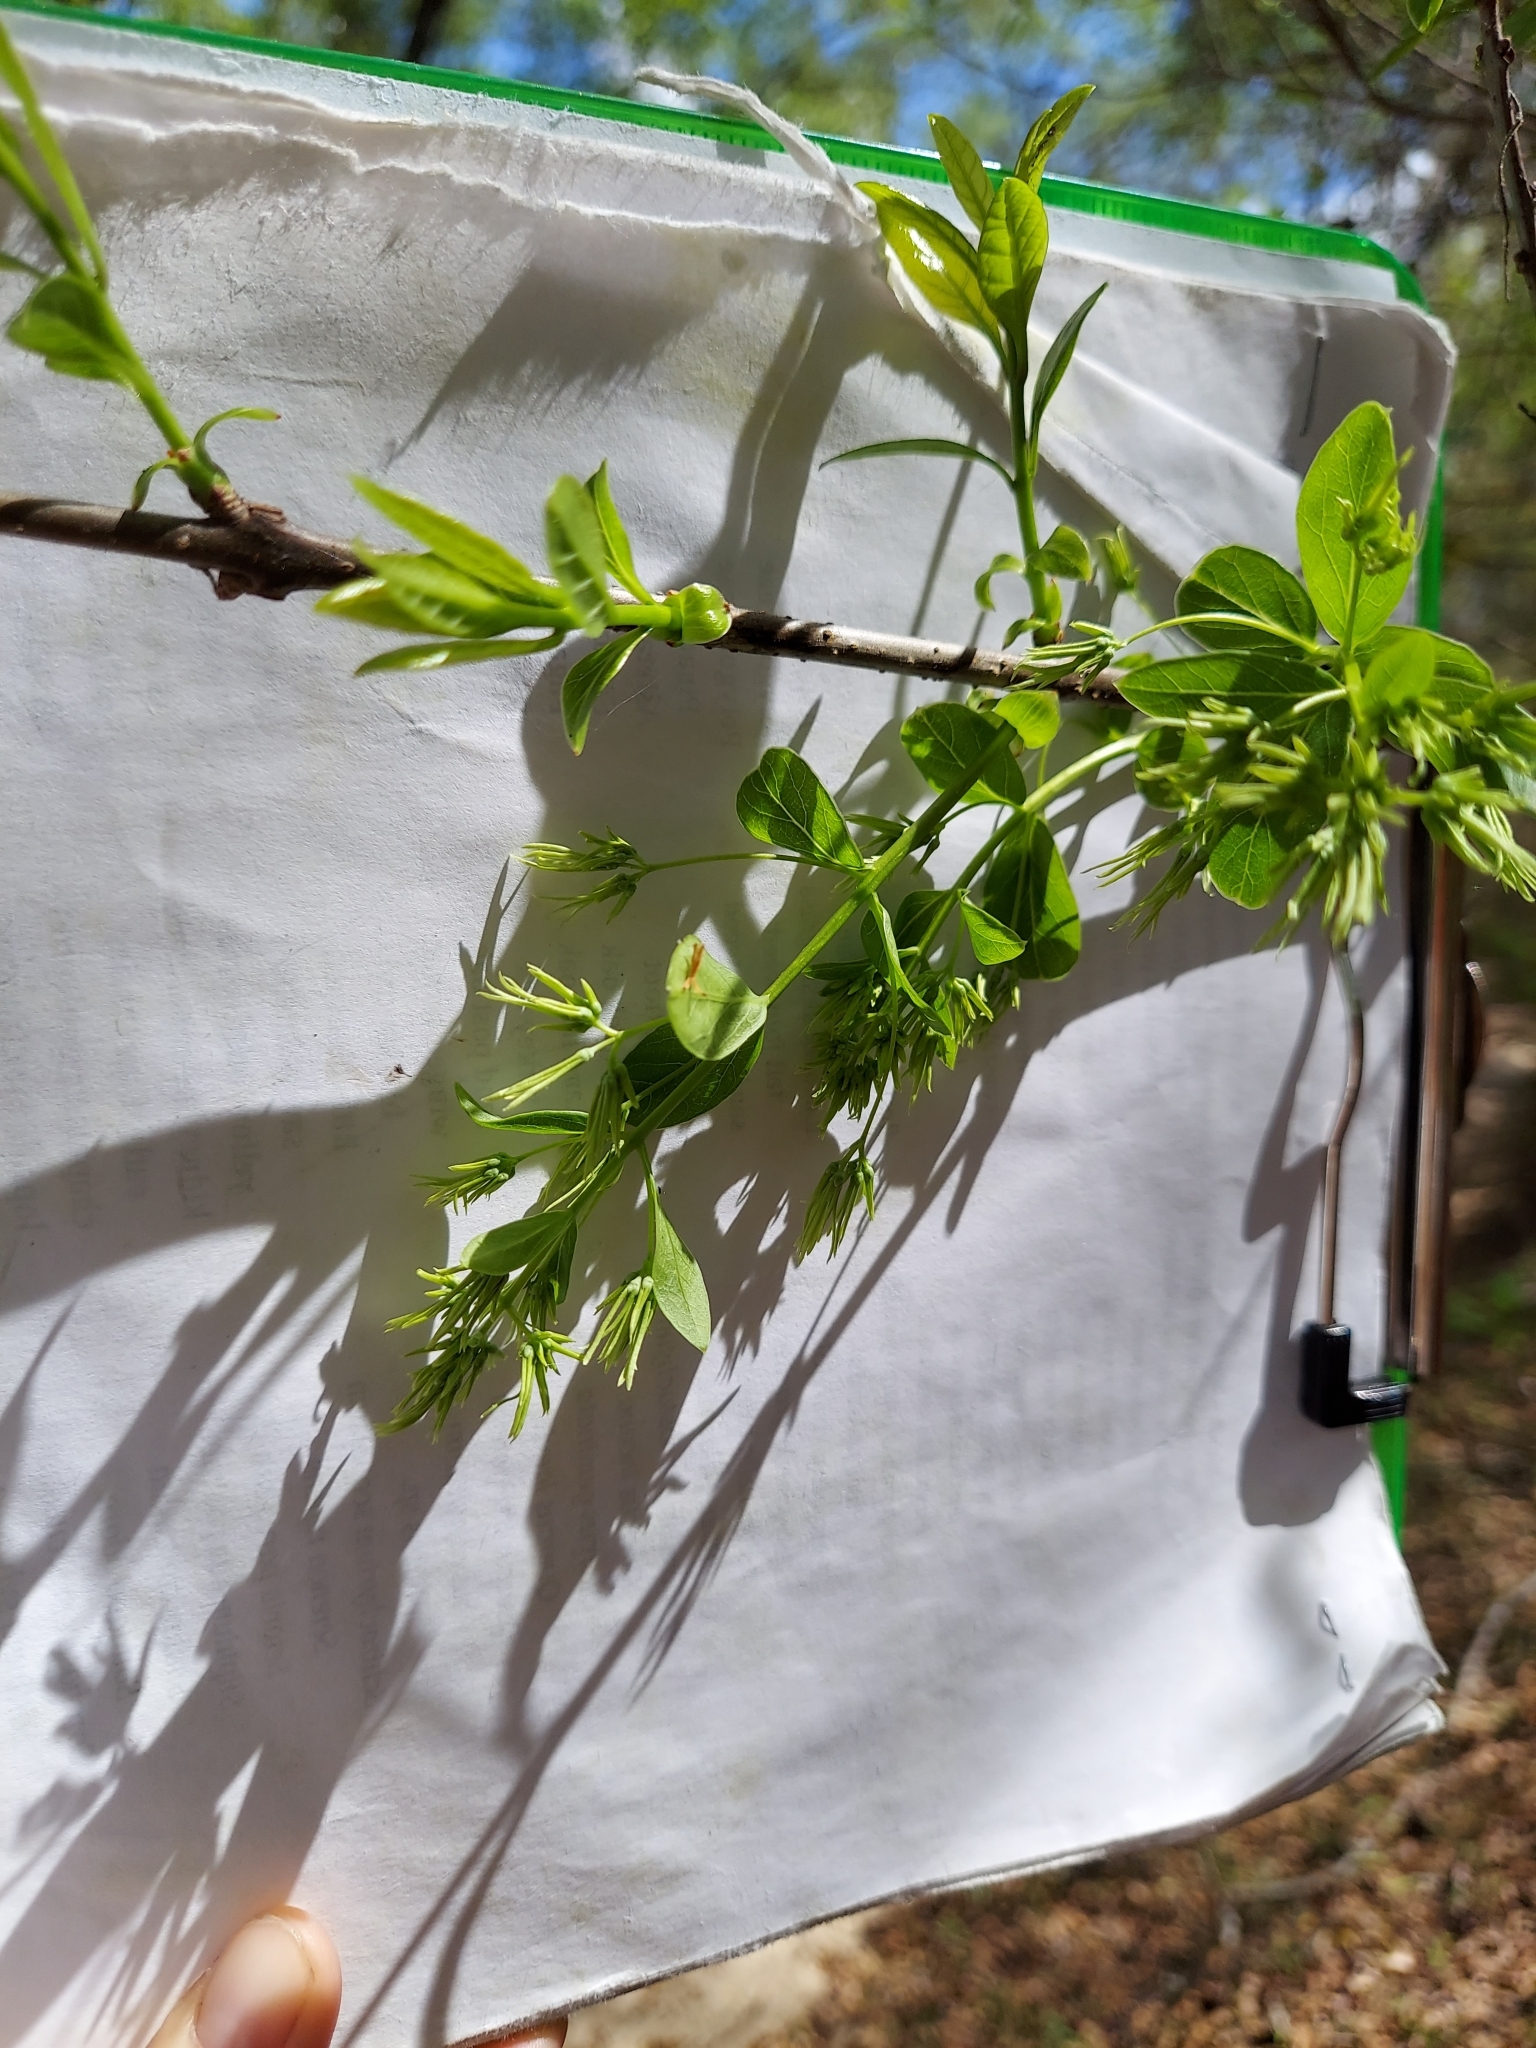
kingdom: Plantae
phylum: Tracheophyta
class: Magnoliopsida
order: Lamiales
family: Oleaceae
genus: Chionanthus
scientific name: Chionanthus virginicus
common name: American fringetree
